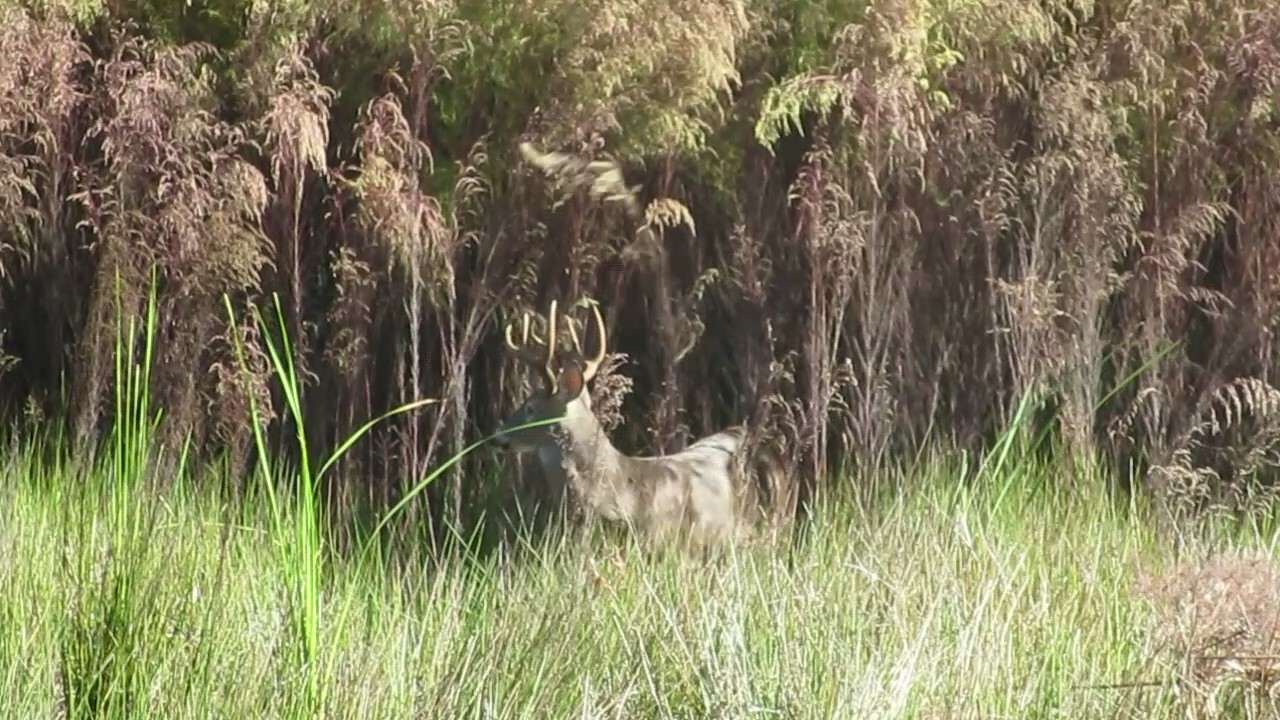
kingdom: Animalia
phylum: Chordata
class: Mammalia
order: Artiodactyla
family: Cervidae
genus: Odocoileus
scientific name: Odocoileus virginianus
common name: White-tailed deer
